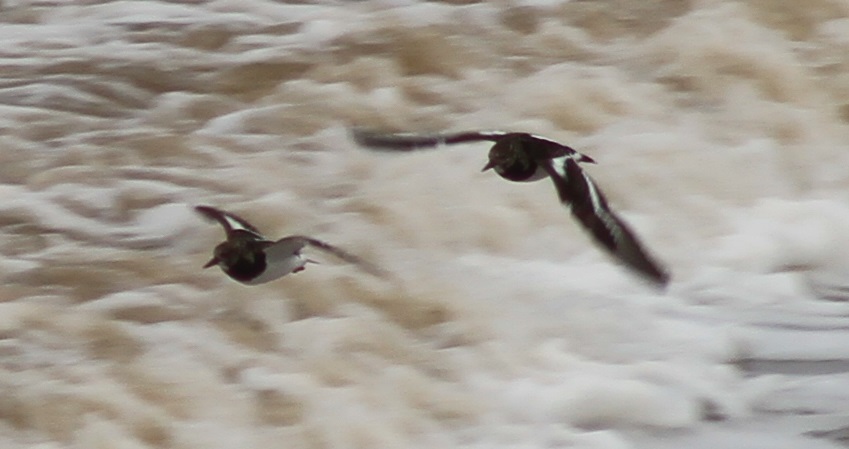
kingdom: Animalia
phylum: Chordata
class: Aves
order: Charadriiformes
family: Haematopodidae
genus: Haematopus
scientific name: Haematopus ostralegus
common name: Eurasian oystercatcher
